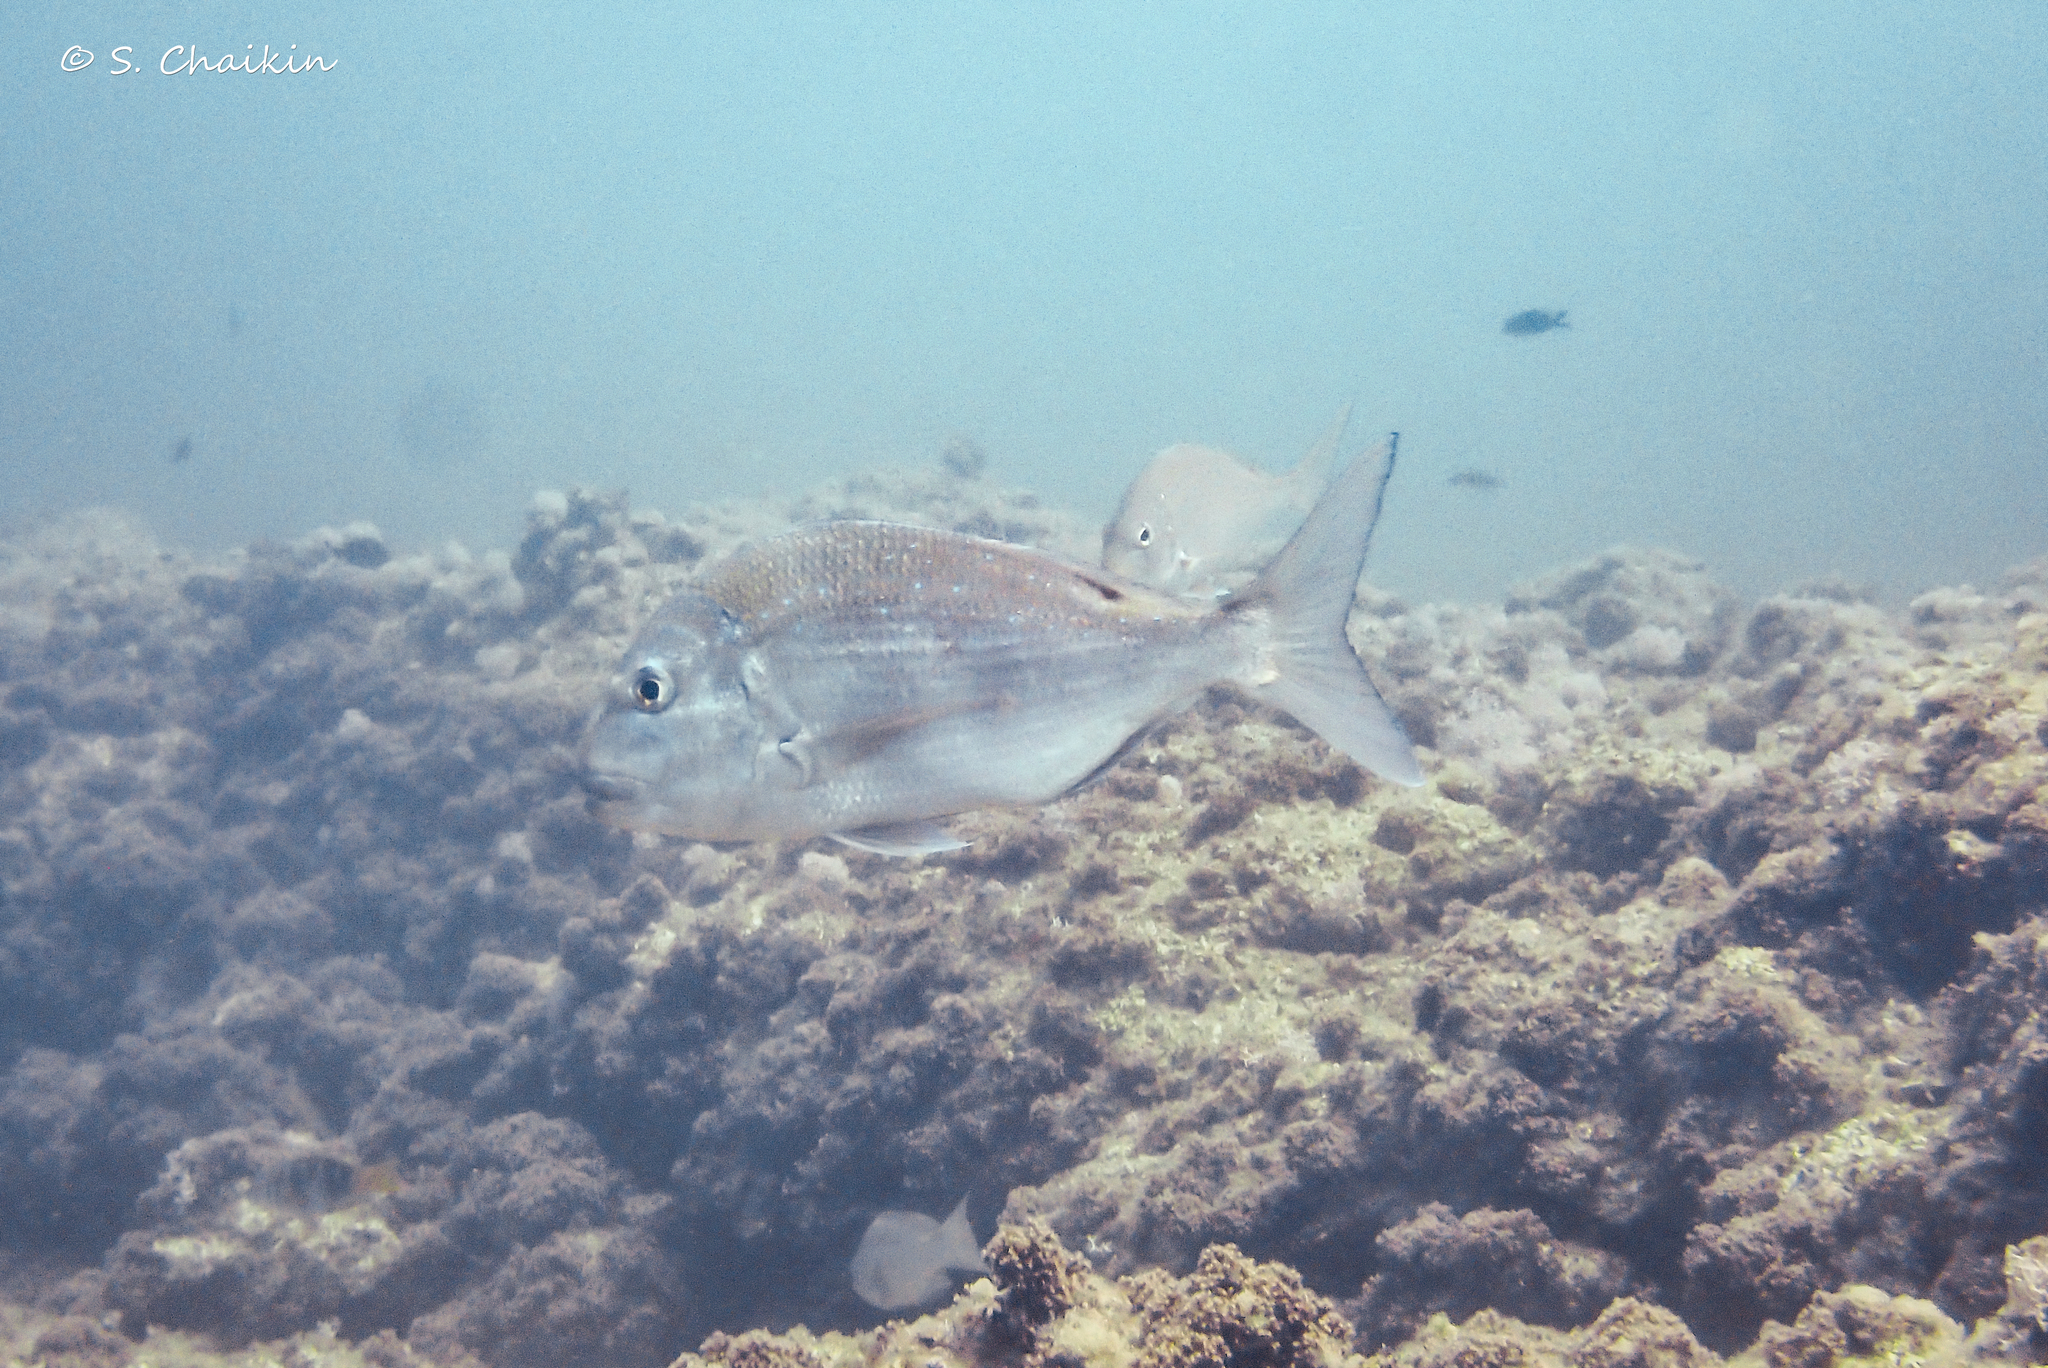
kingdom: Animalia
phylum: Chordata
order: Perciformes
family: Sparidae
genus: Pagrus
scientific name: Pagrus caeruleostictus
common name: Bluespotted seabream
